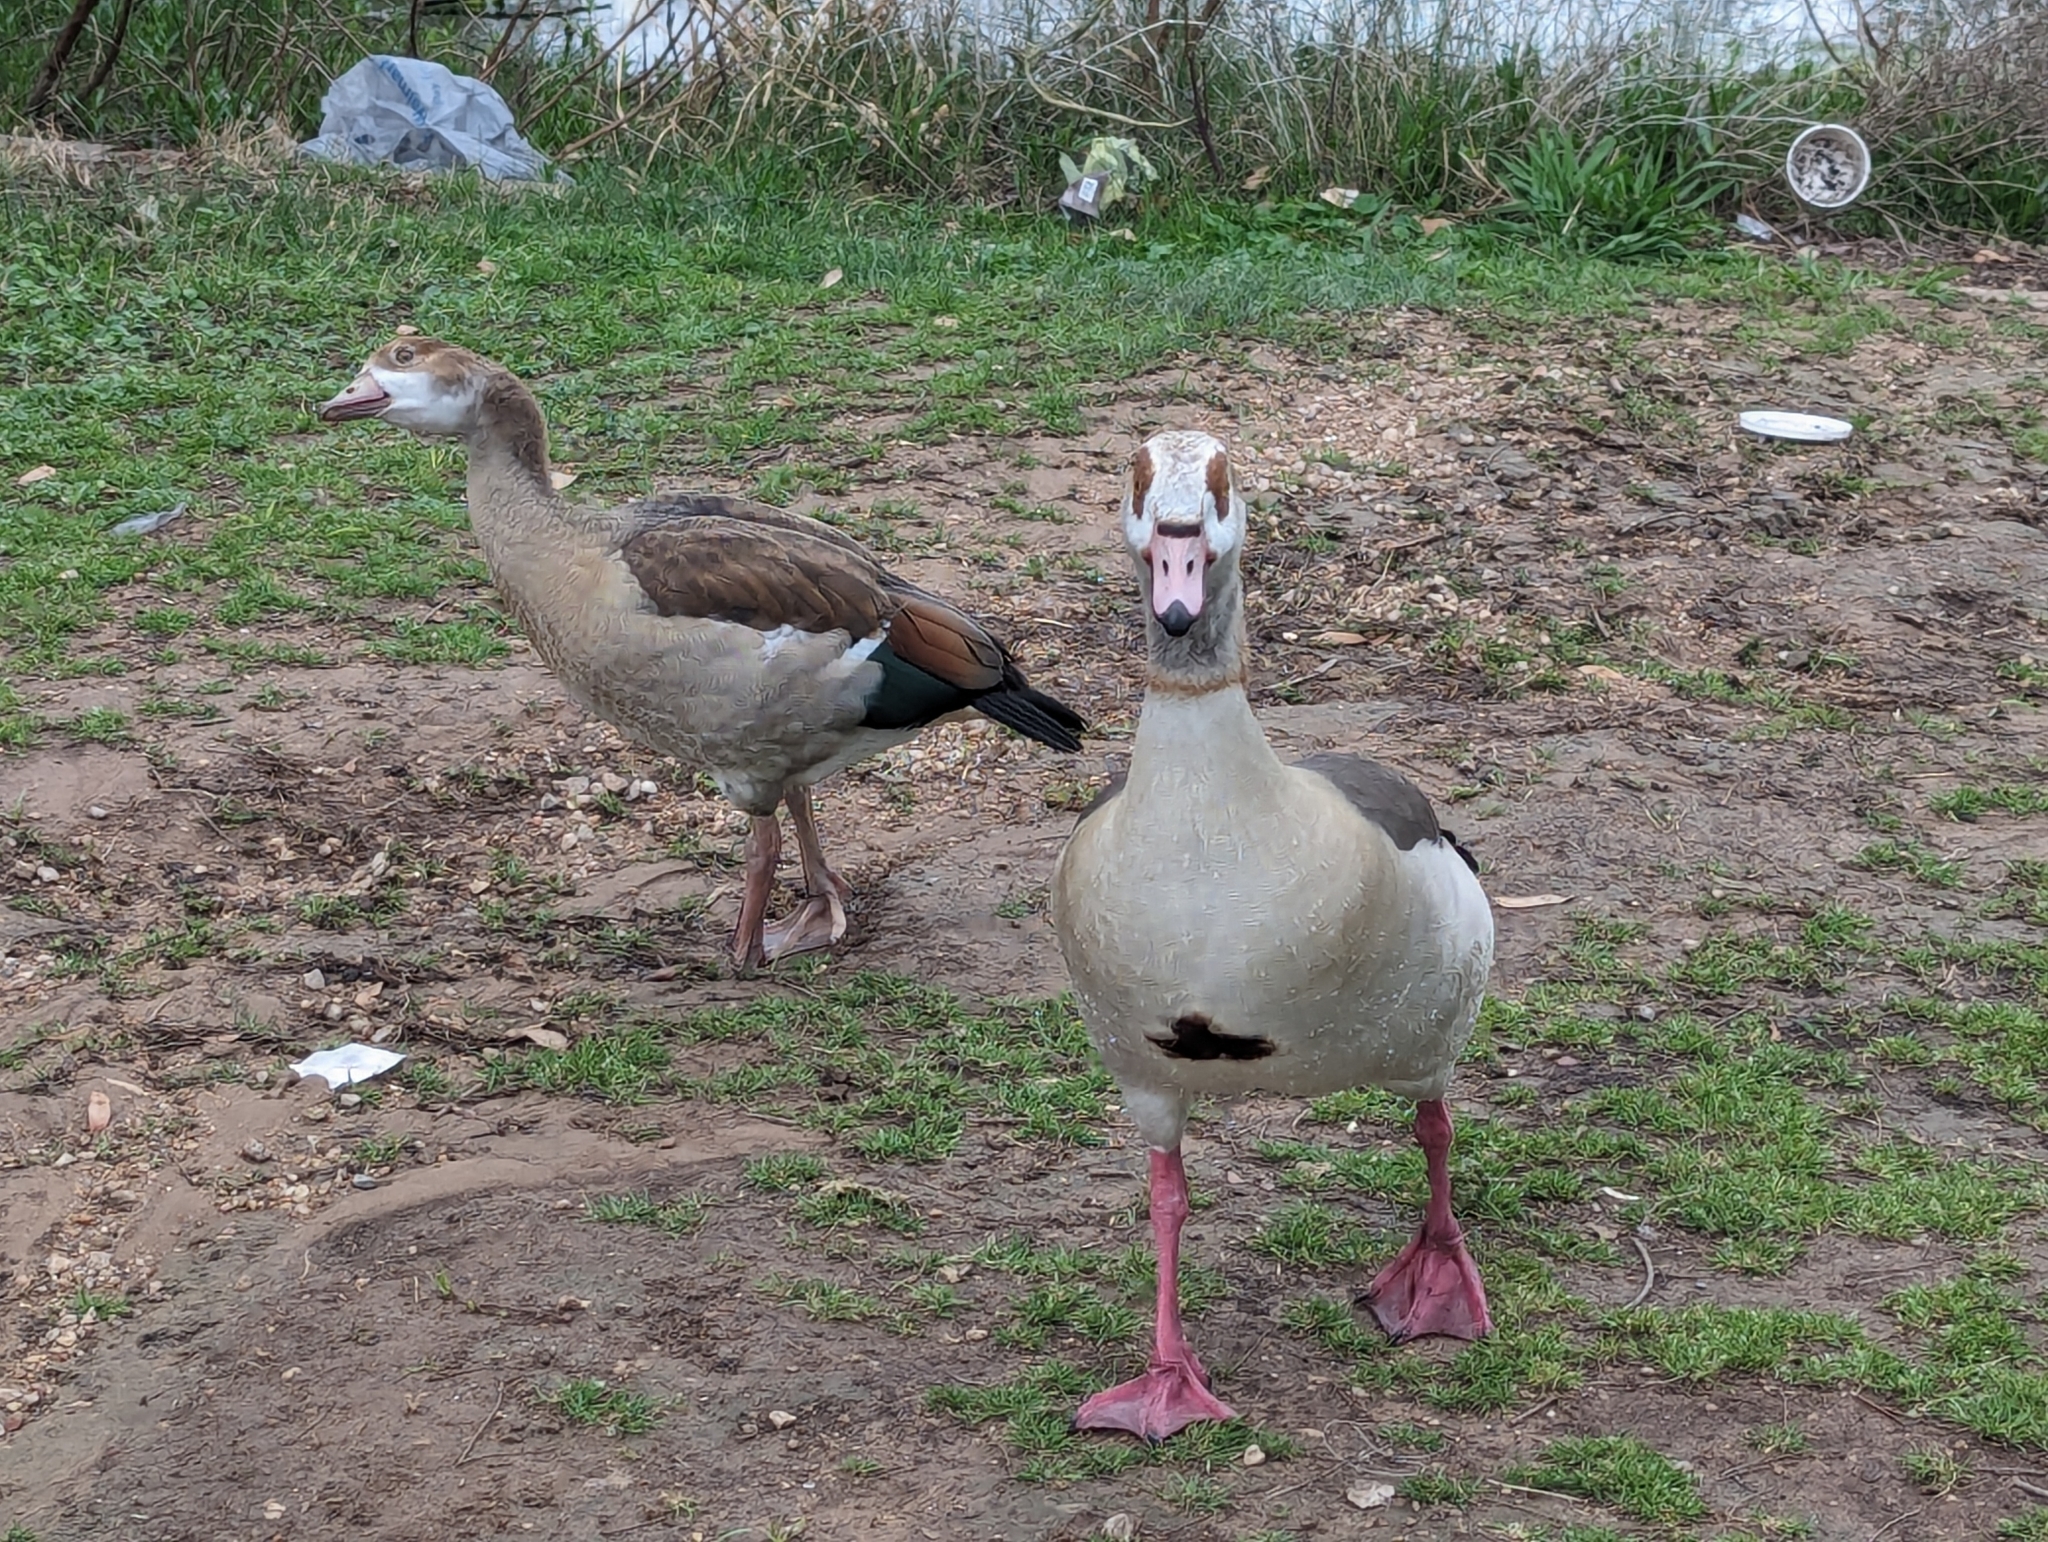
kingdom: Animalia
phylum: Chordata
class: Aves
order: Anseriformes
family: Anatidae
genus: Alopochen
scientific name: Alopochen aegyptiaca
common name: Egyptian goose
